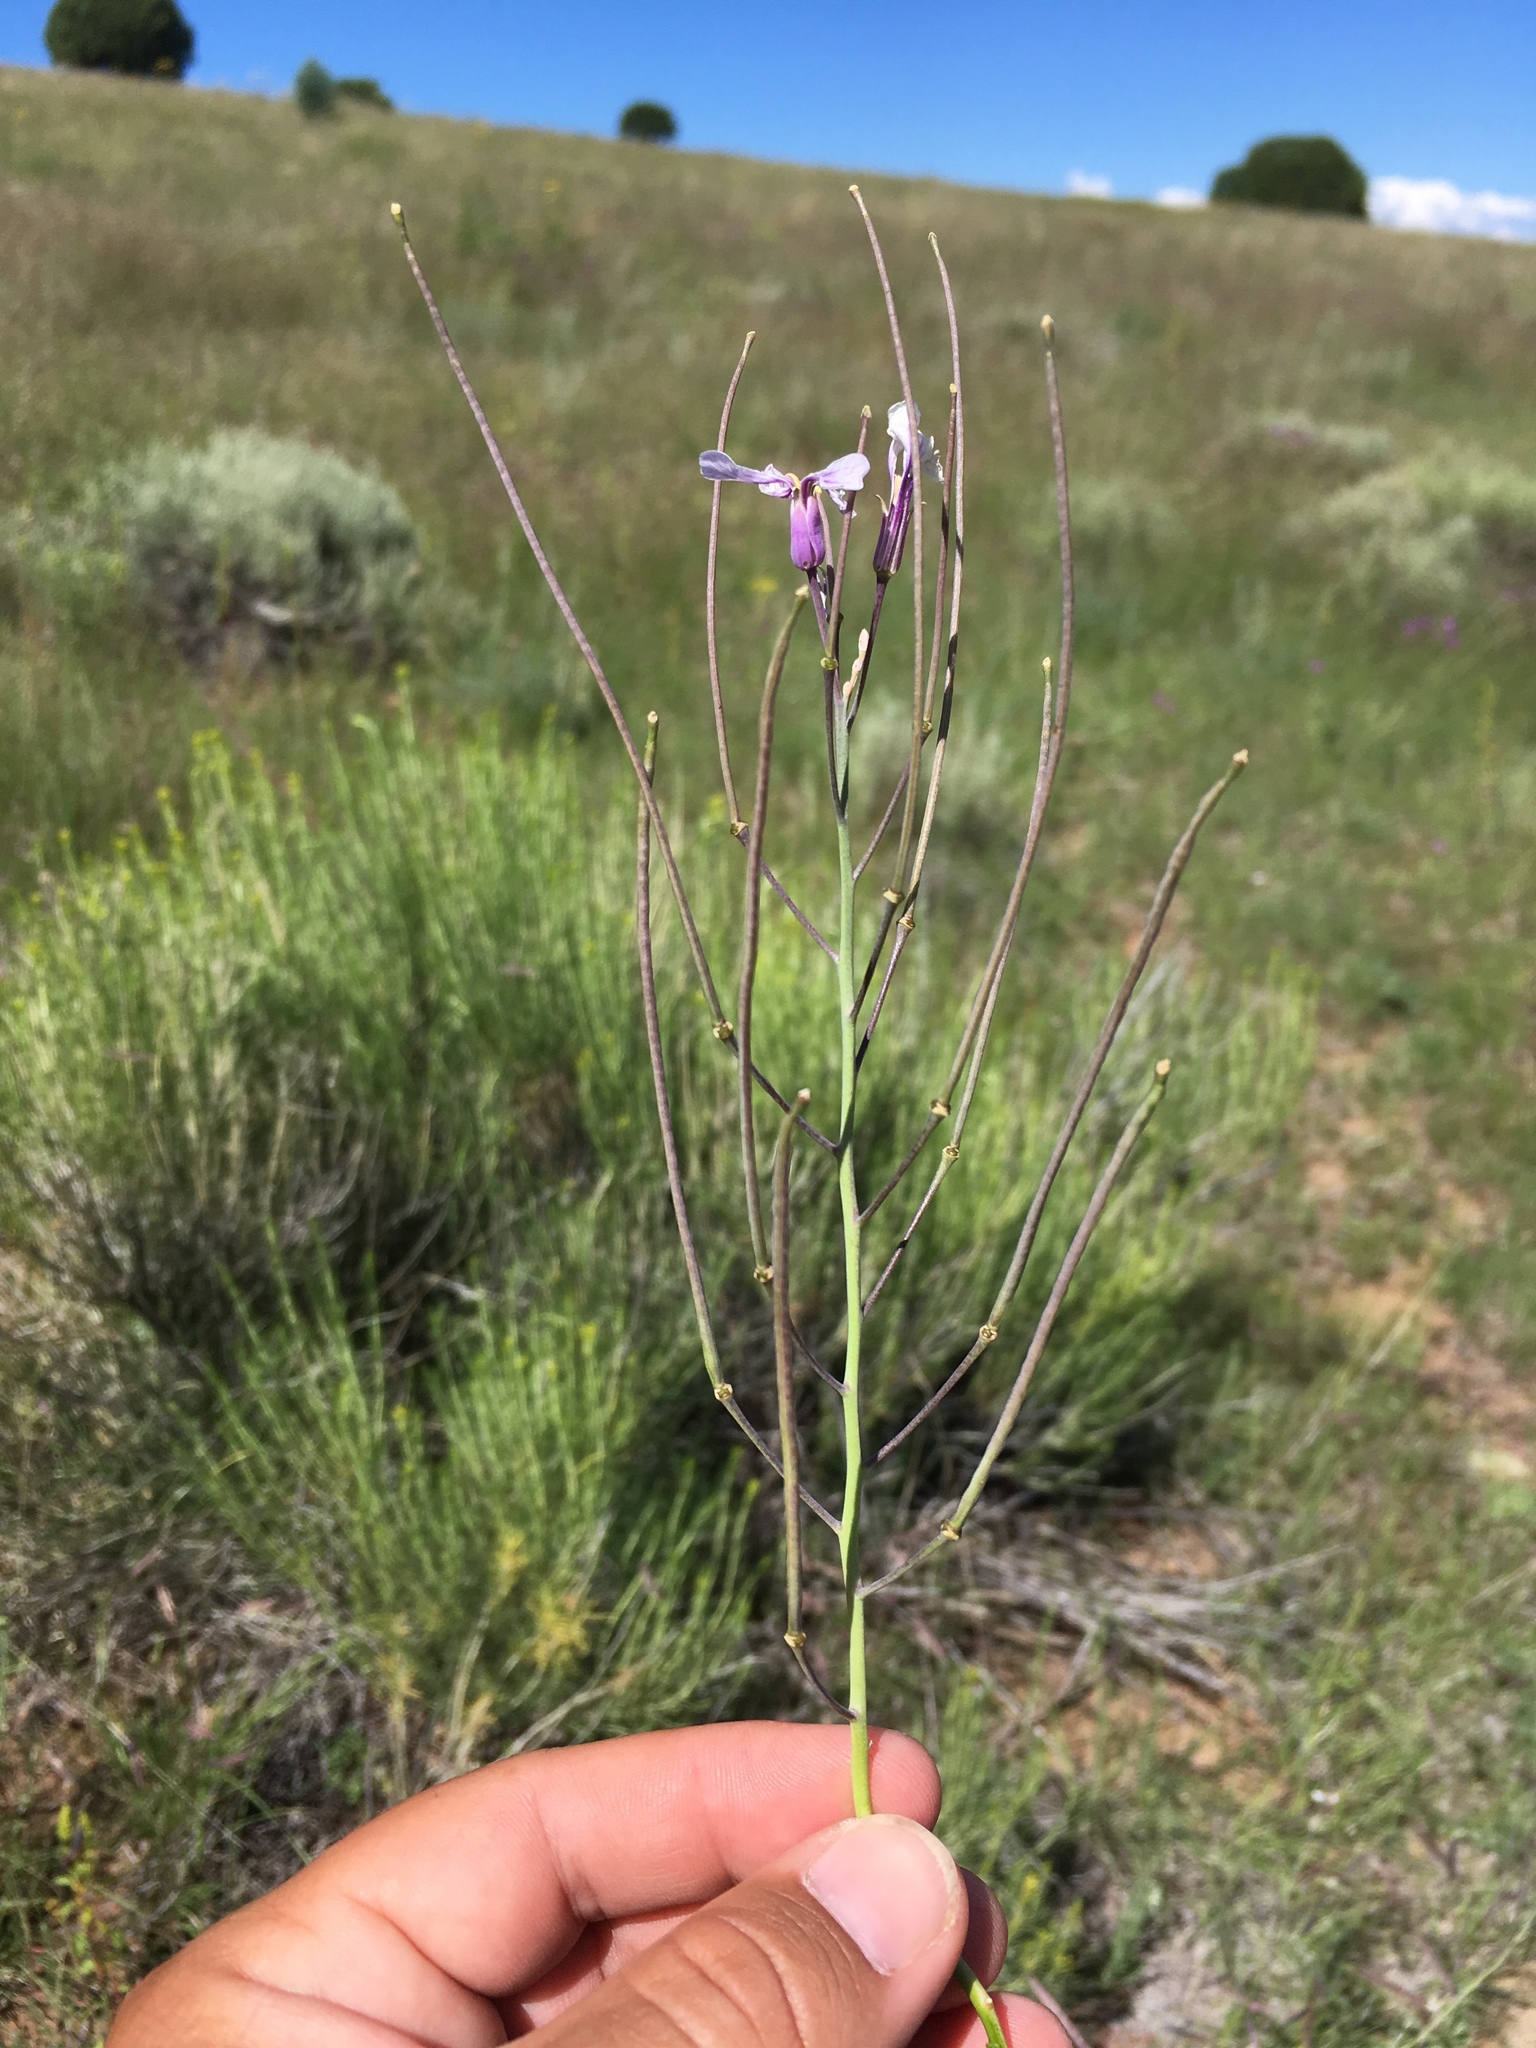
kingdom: Plantae
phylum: Tracheophyta
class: Magnoliopsida
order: Brassicales
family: Brassicaceae
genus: Hesperidanthus
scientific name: Hesperidanthus linearifolius
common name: Slim-leaf plains mustard
